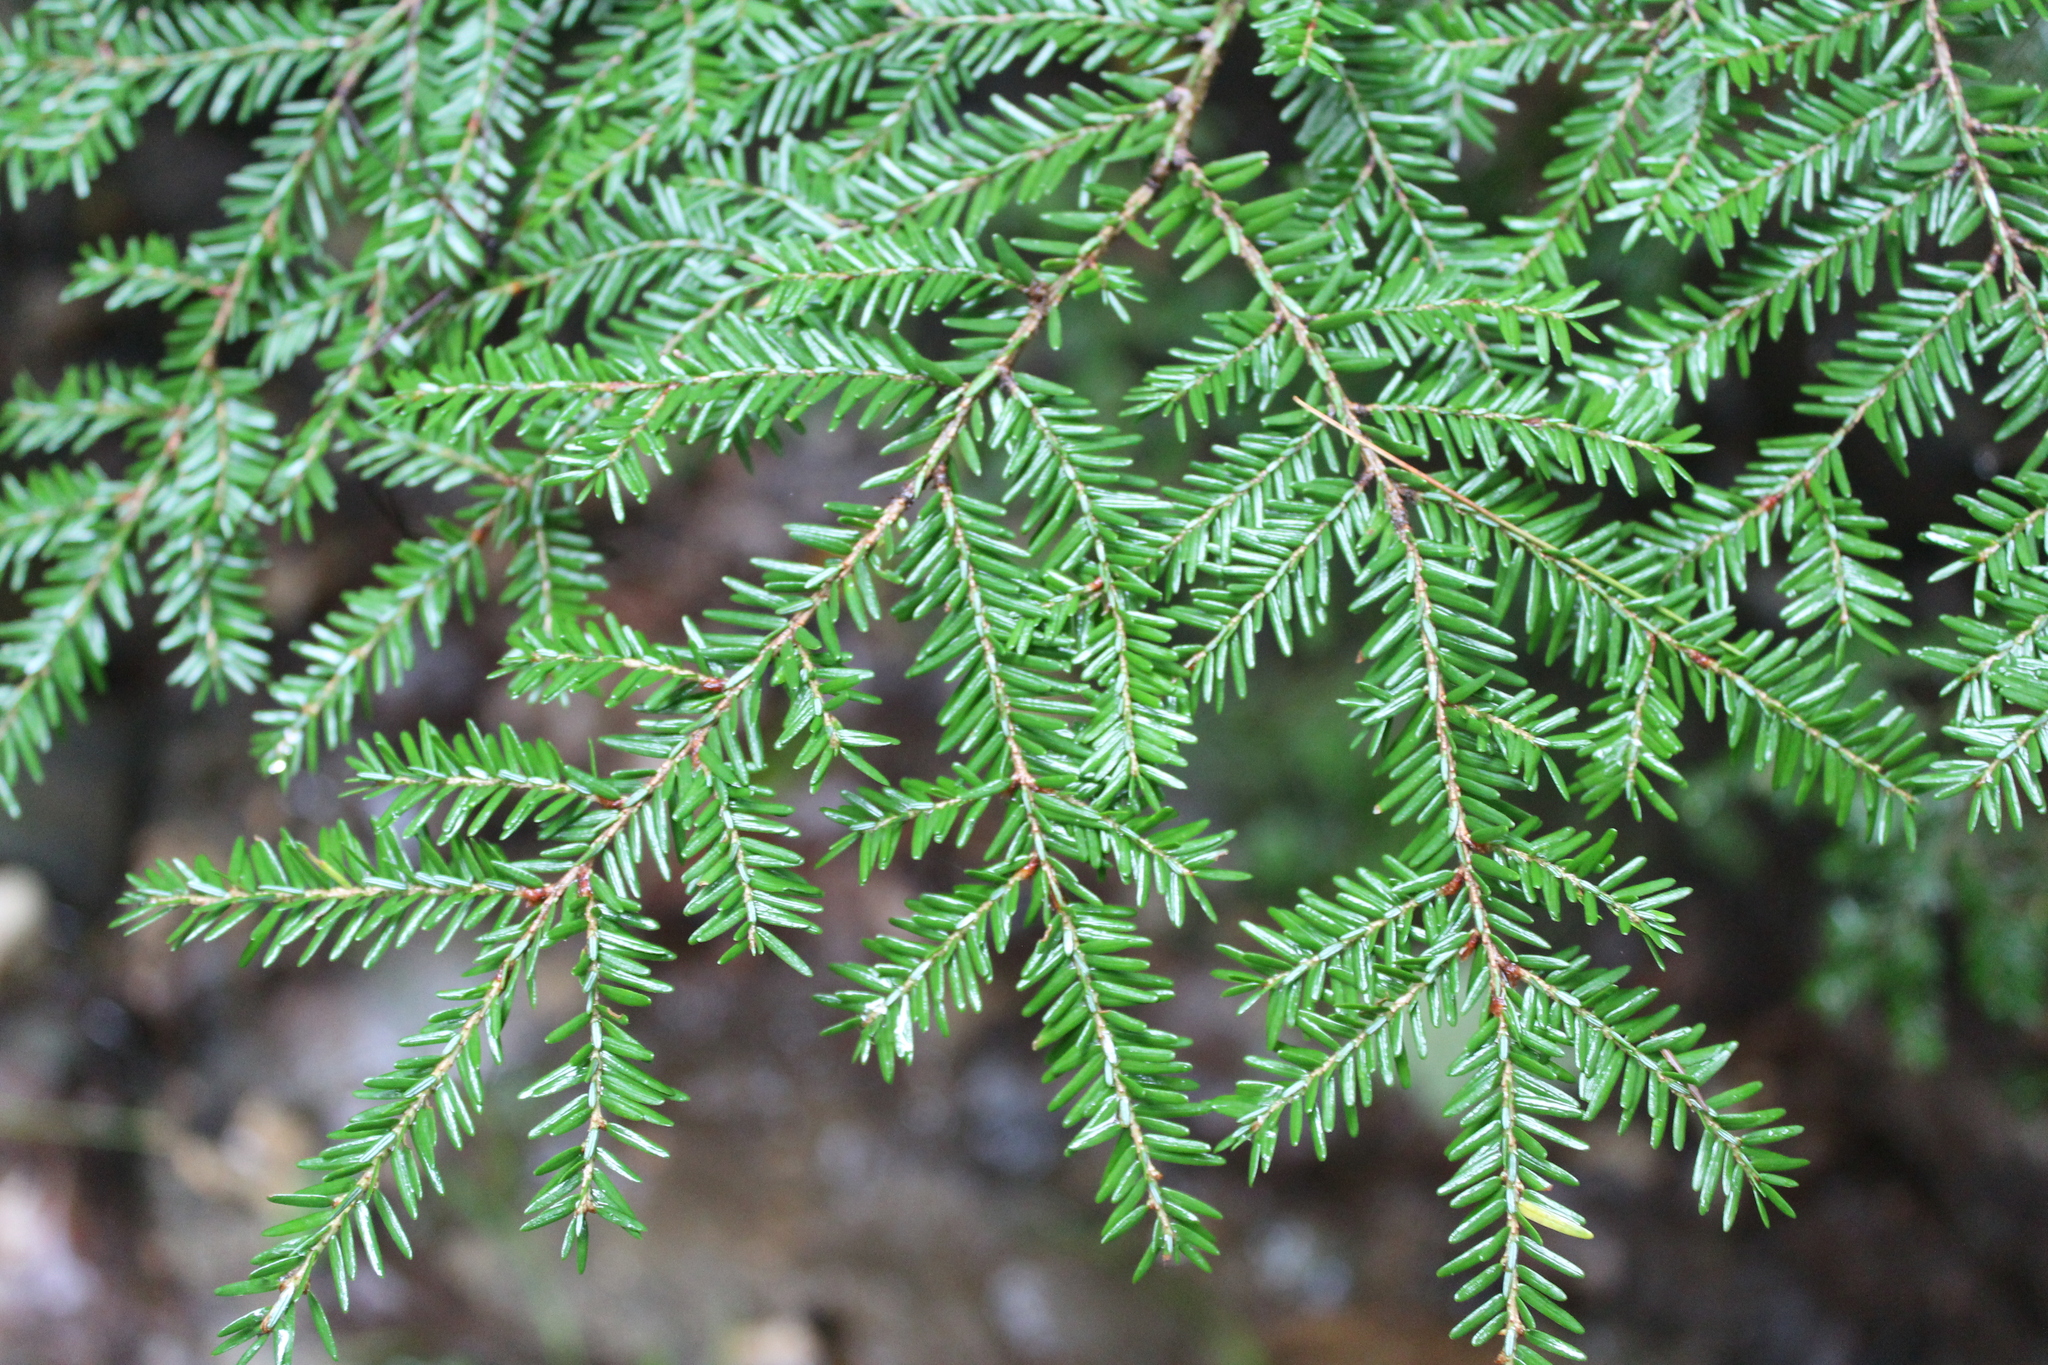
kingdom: Plantae
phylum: Tracheophyta
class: Pinopsida
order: Pinales
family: Pinaceae
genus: Tsuga
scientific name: Tsuga canadensis
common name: Eastern hemlock
